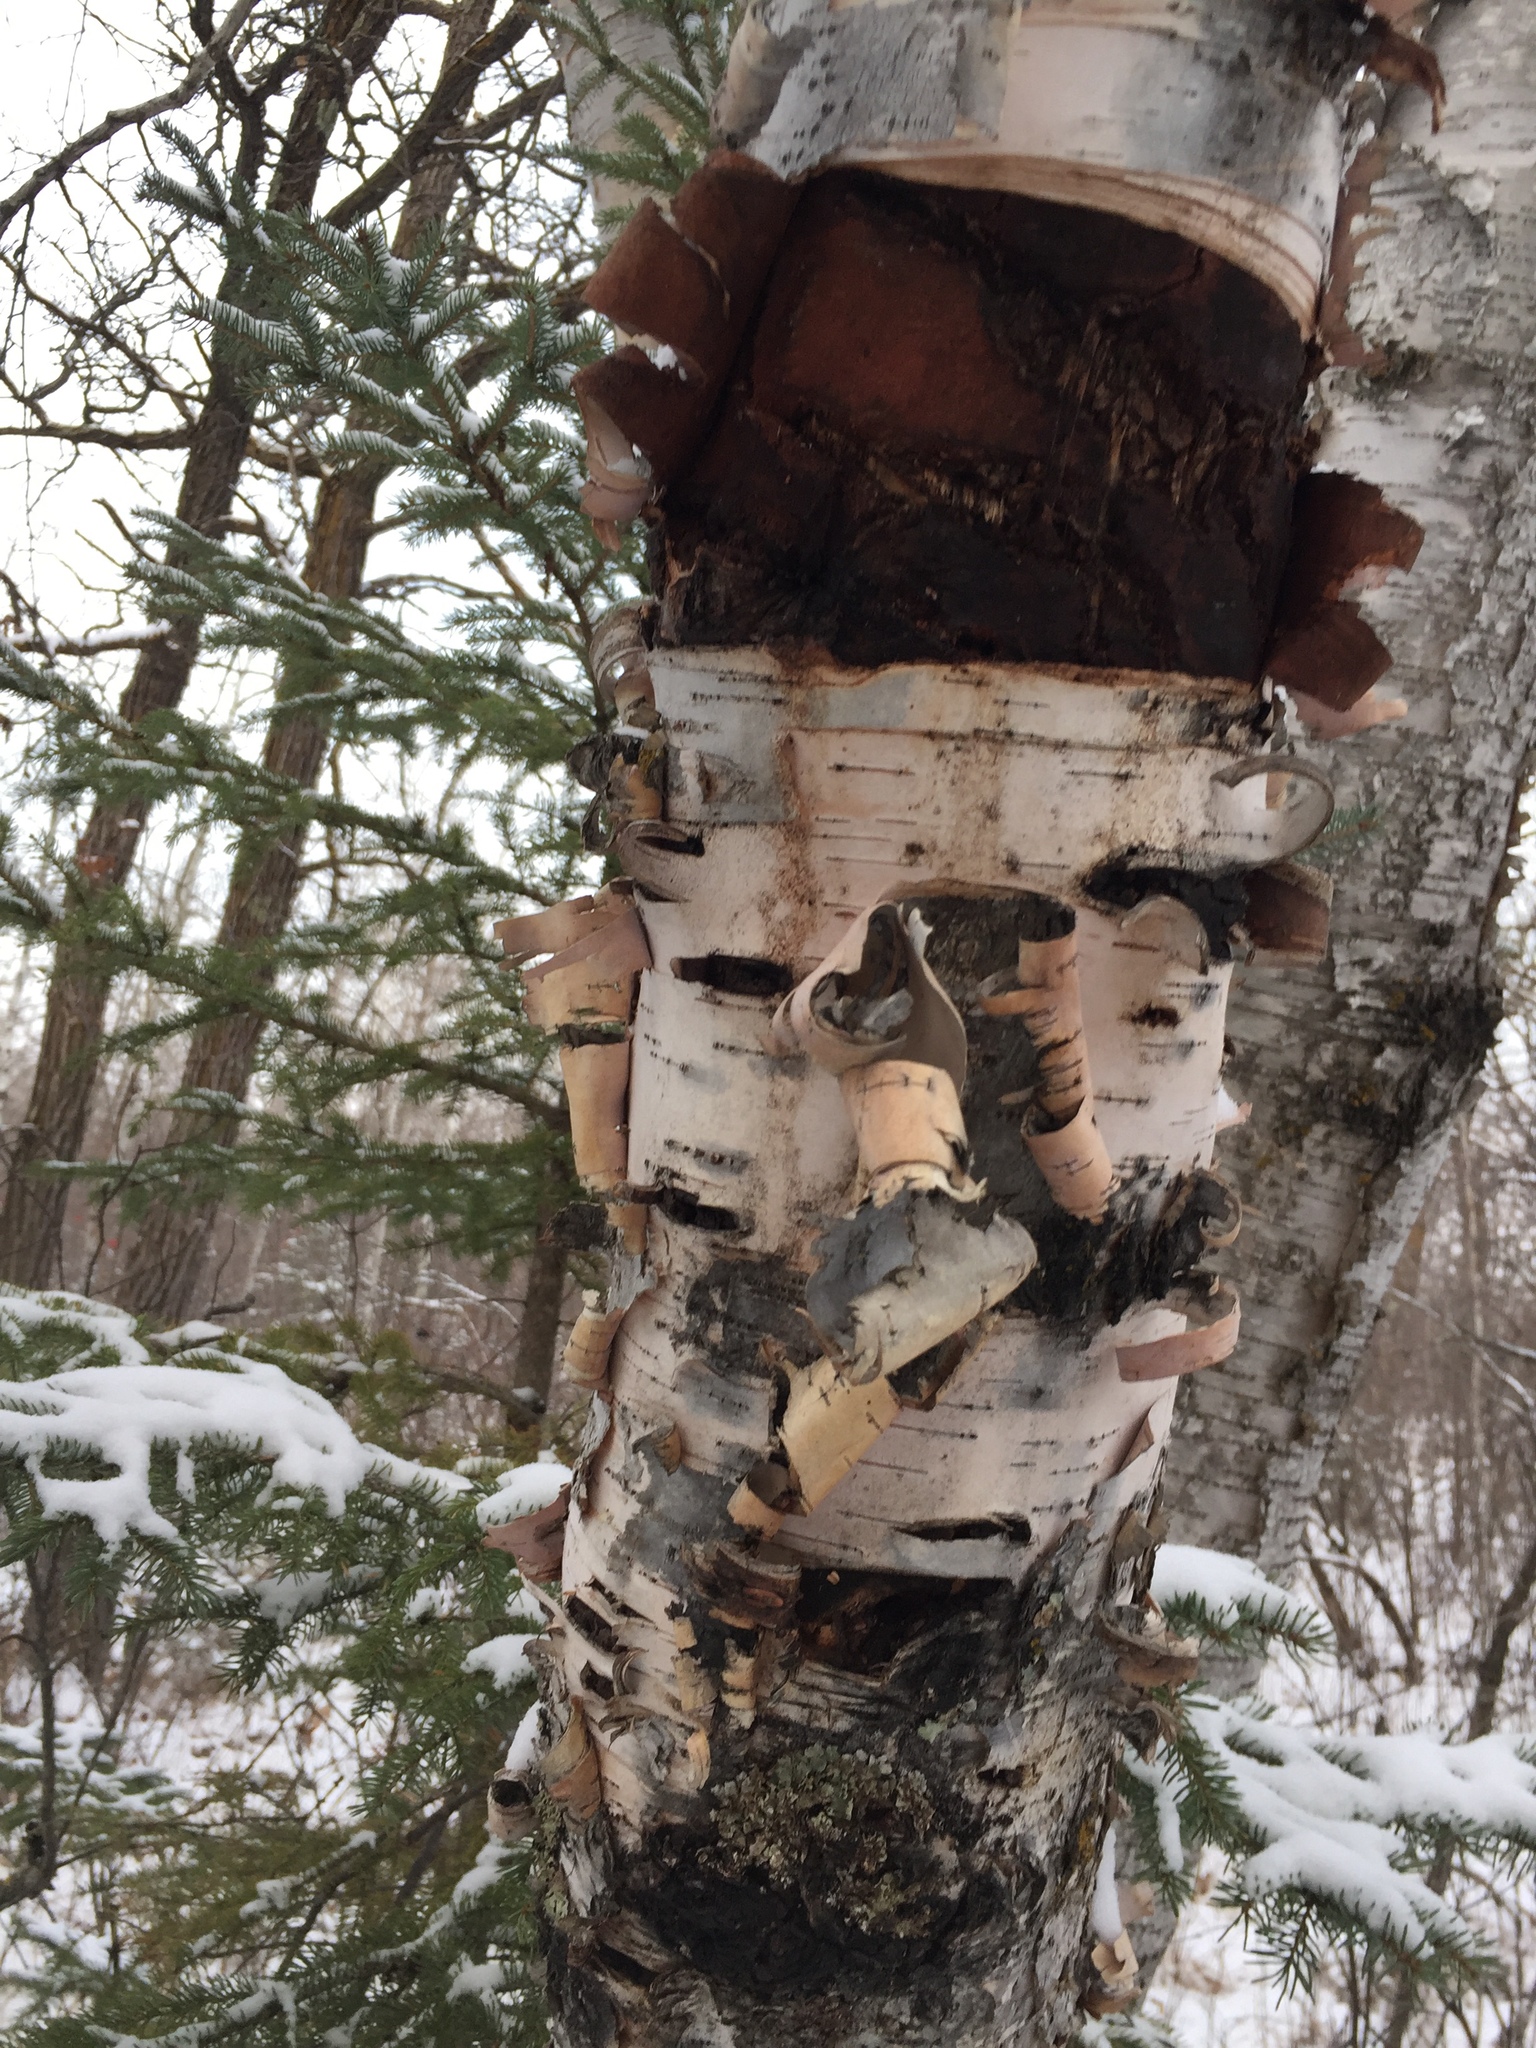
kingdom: Plantae
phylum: Tracheophyta
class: Magnoliopsida
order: Fagales
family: Betulaceae
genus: Betula
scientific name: Betula papyrifera
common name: Paper birch
